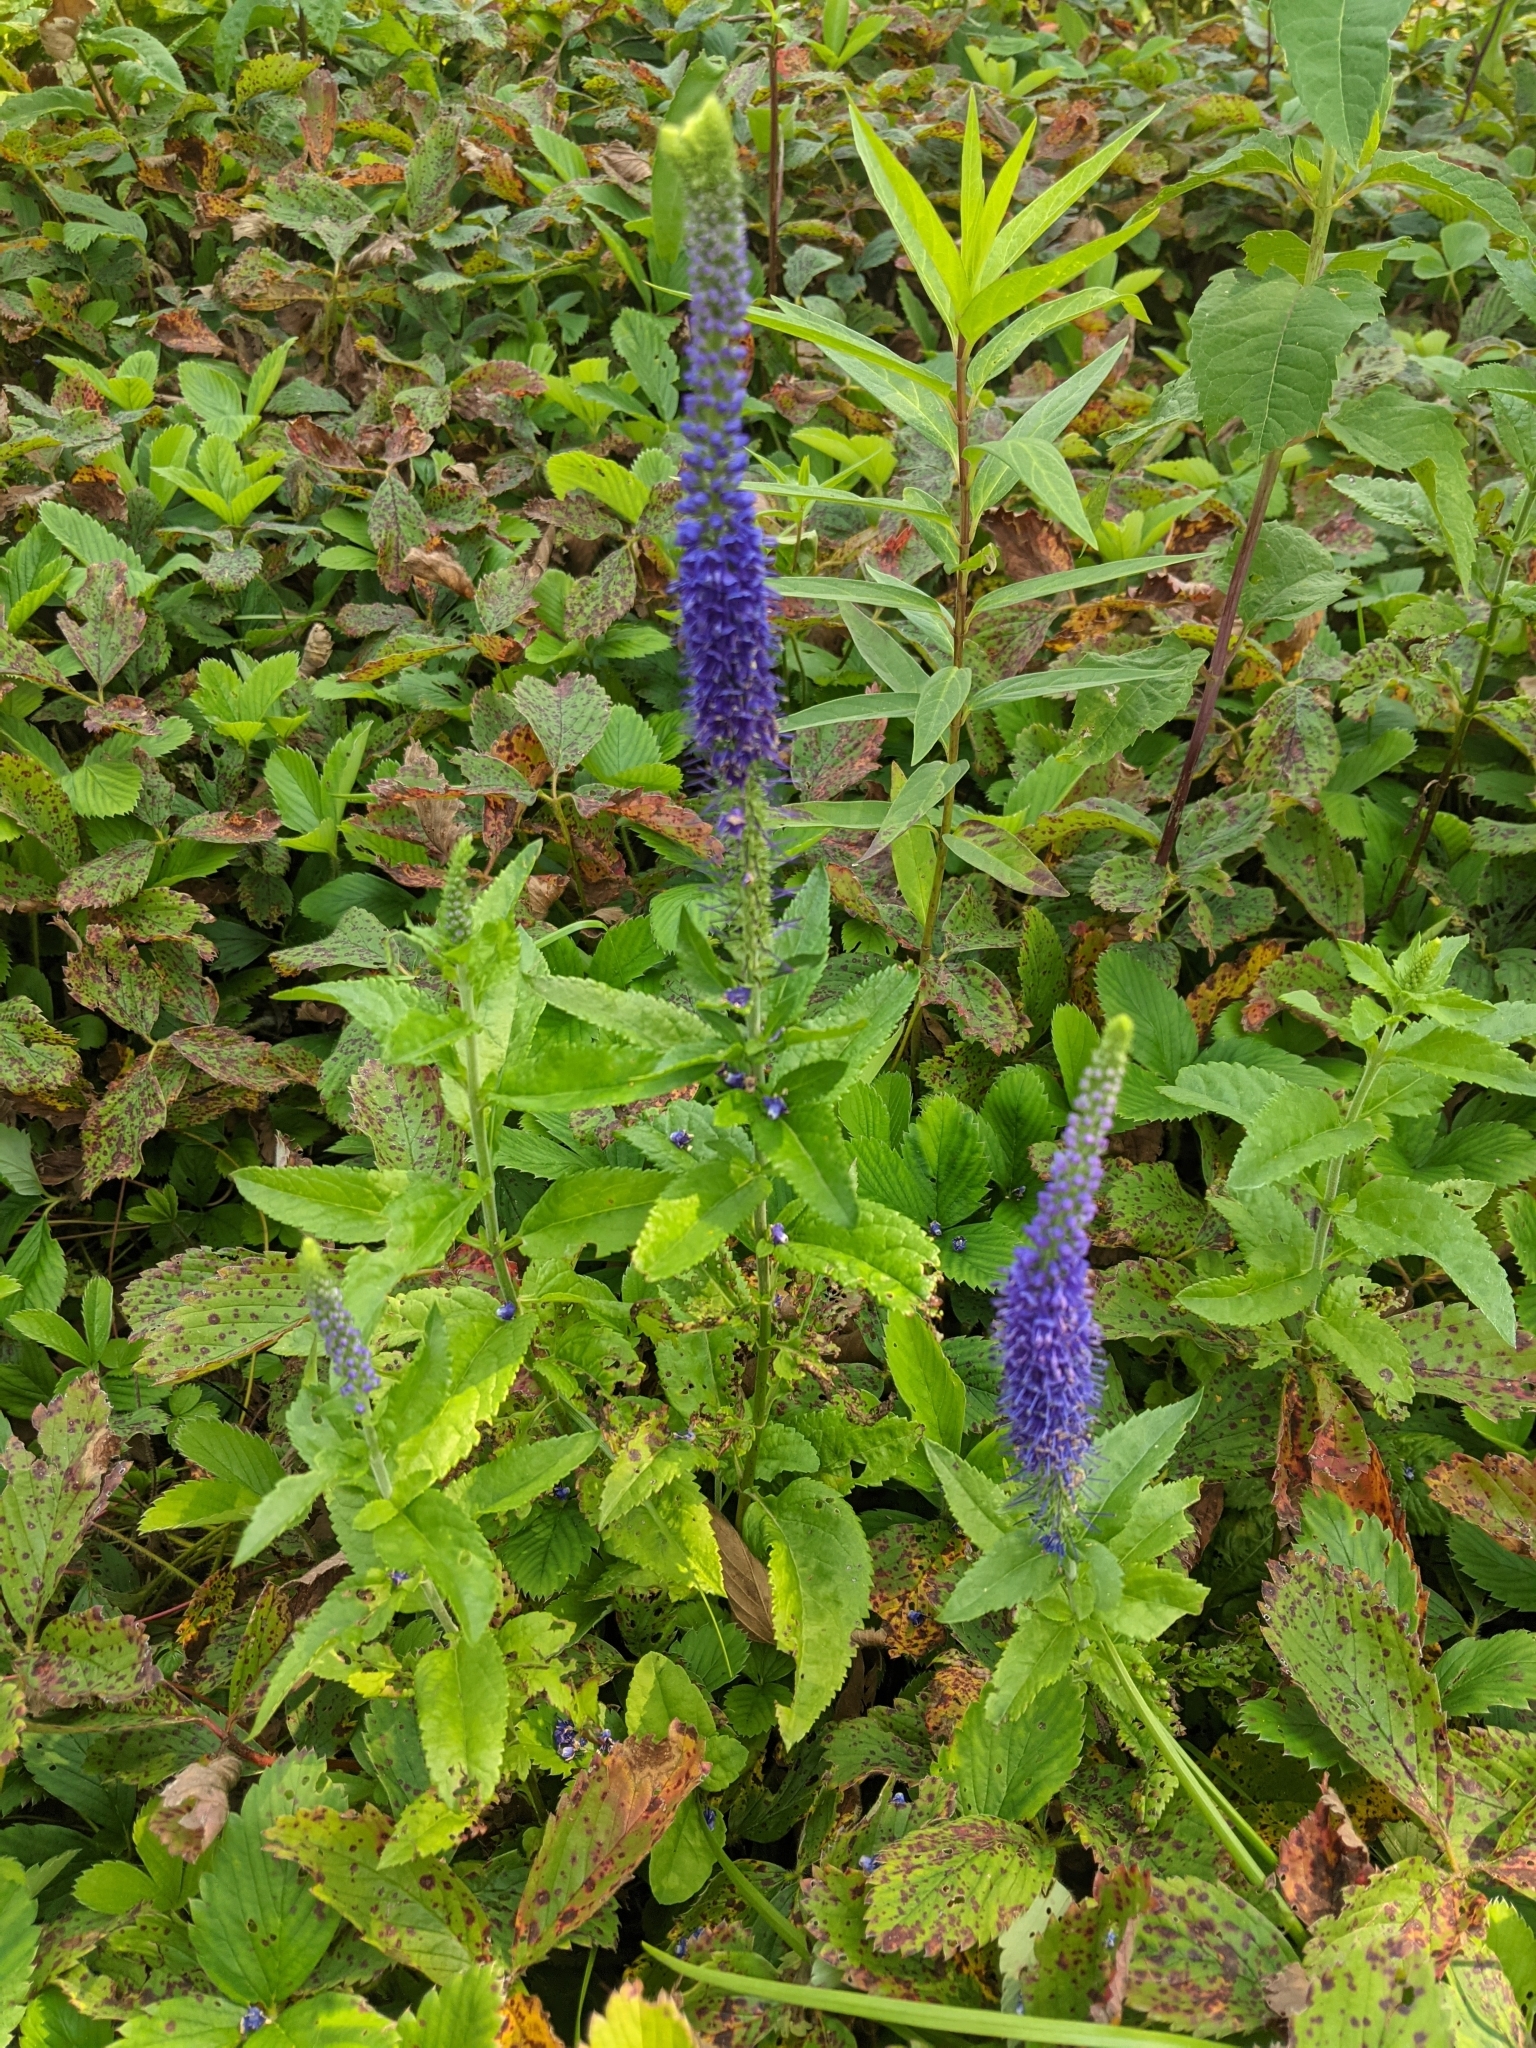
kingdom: Plantae
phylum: Tracheophyta
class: Magnoliopsida
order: Lamiales
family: Plantaginaceae
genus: Veronica
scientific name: Veronica longifolia
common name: Garden speedwell
